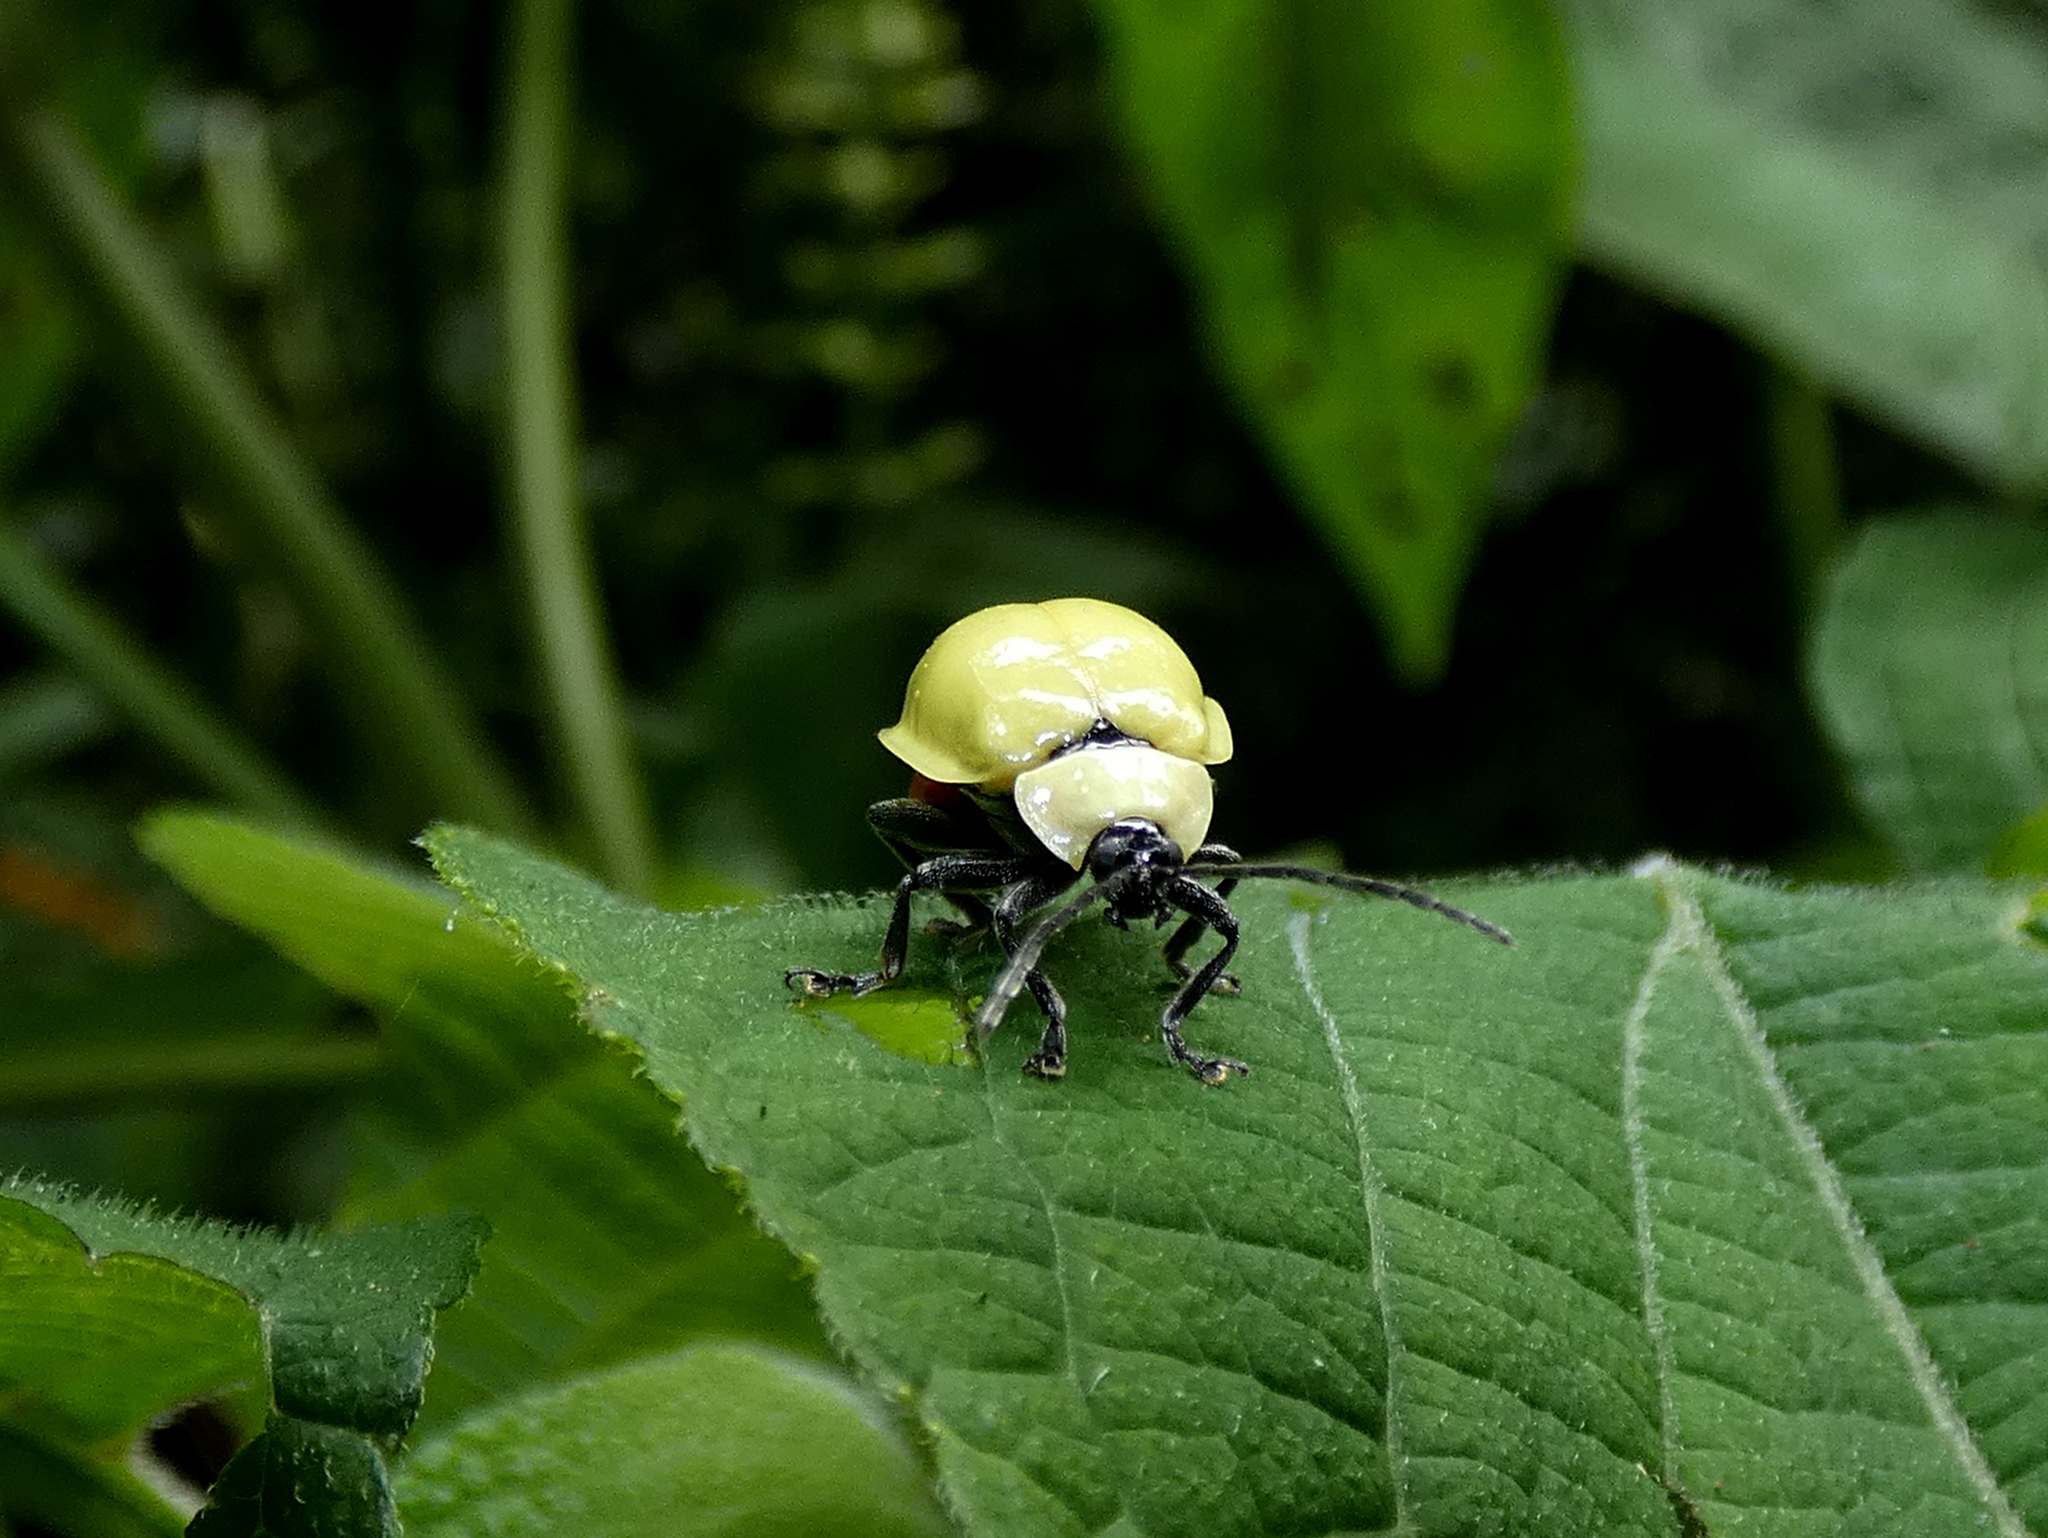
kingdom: Animalia
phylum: Arthropoda
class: Insecta
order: Coleoptera
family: Chrysomelidae
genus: Asphaera
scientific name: Asphaera
